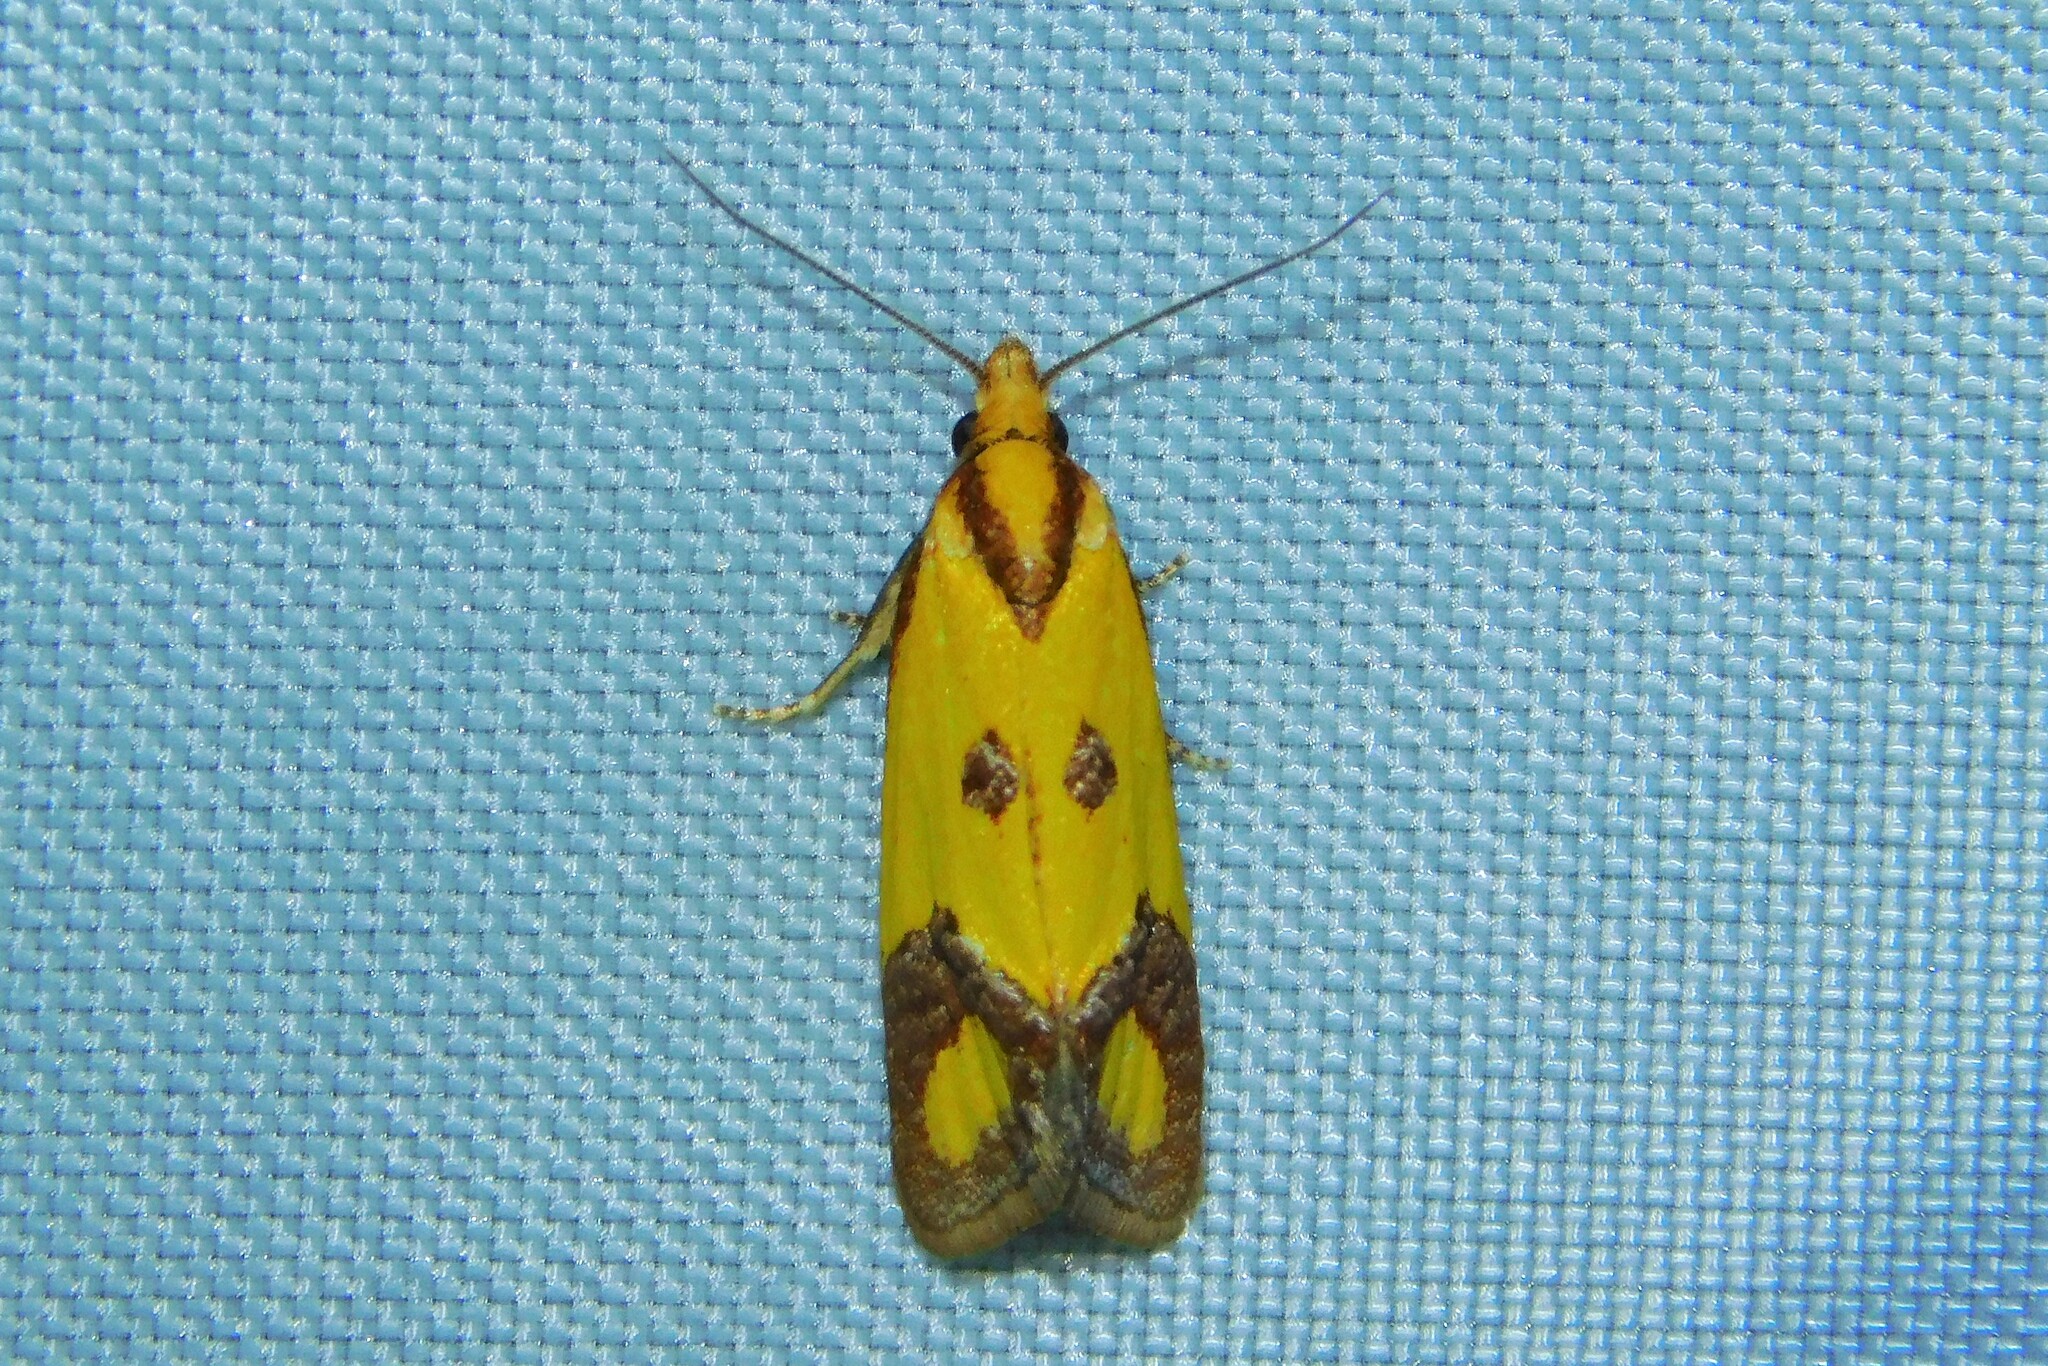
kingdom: Animalia
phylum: Arthropoda
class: Insecta
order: Lepidoptera
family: Tortricidae
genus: Agapeta
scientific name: Agapeta zoegana
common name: Sulfur knapweed root moth
